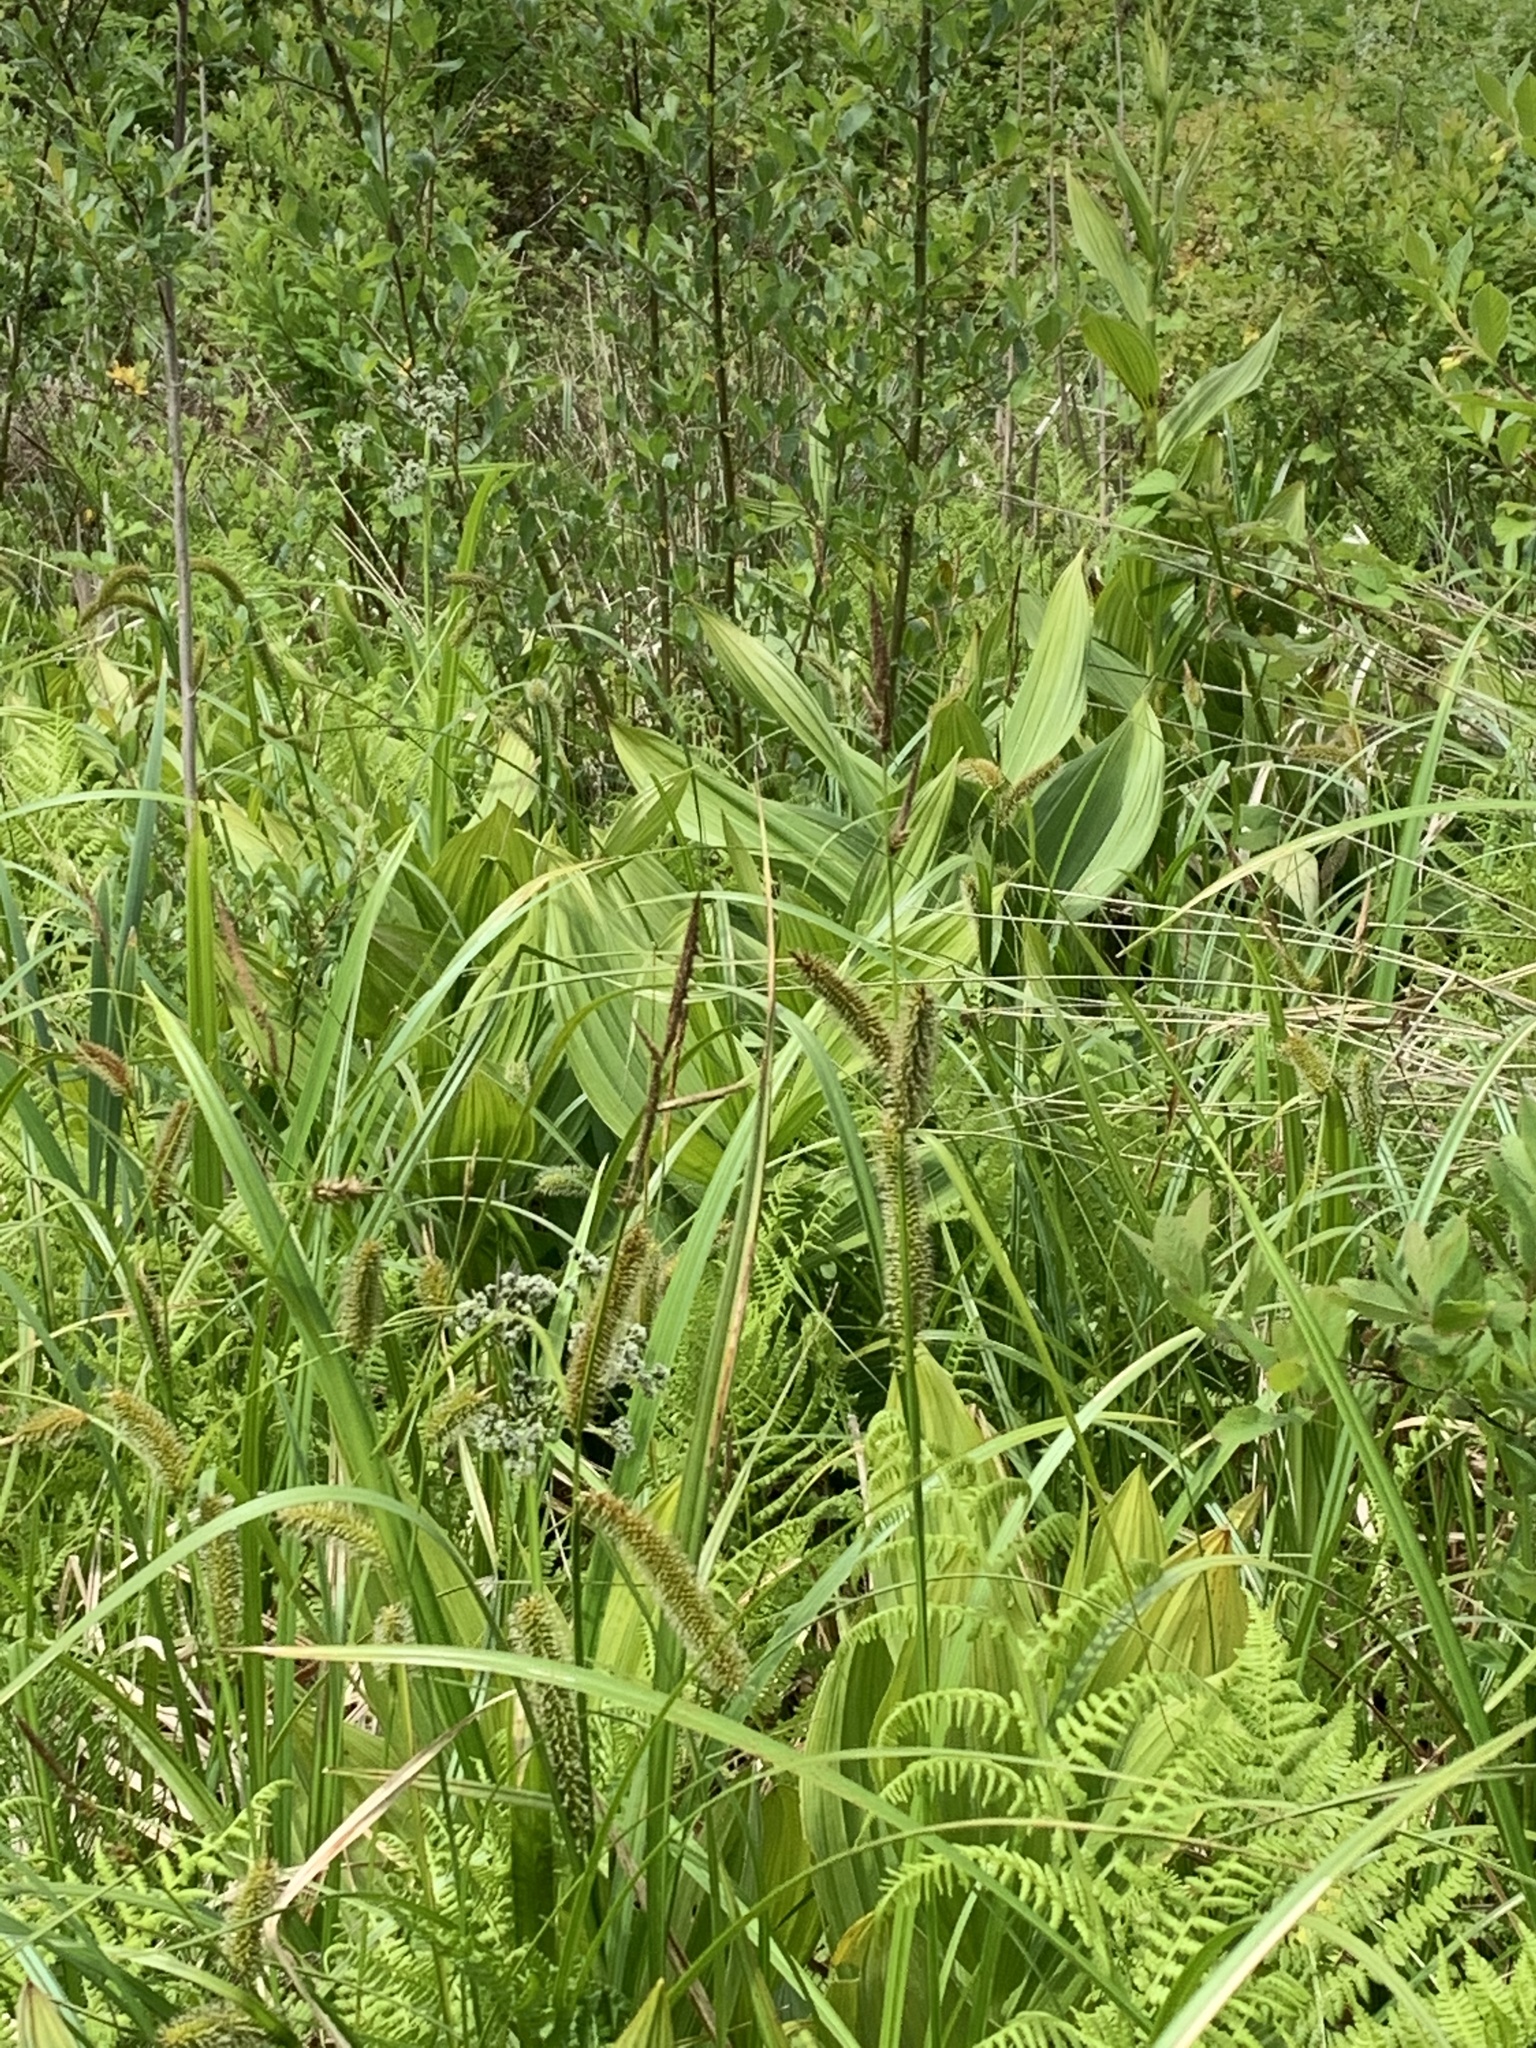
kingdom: Plantae
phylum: Tracheophyta
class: Liliopsida
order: Poales
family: Cyperaceae
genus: Carex
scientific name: Carex utriculata
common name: Beaked sedge
